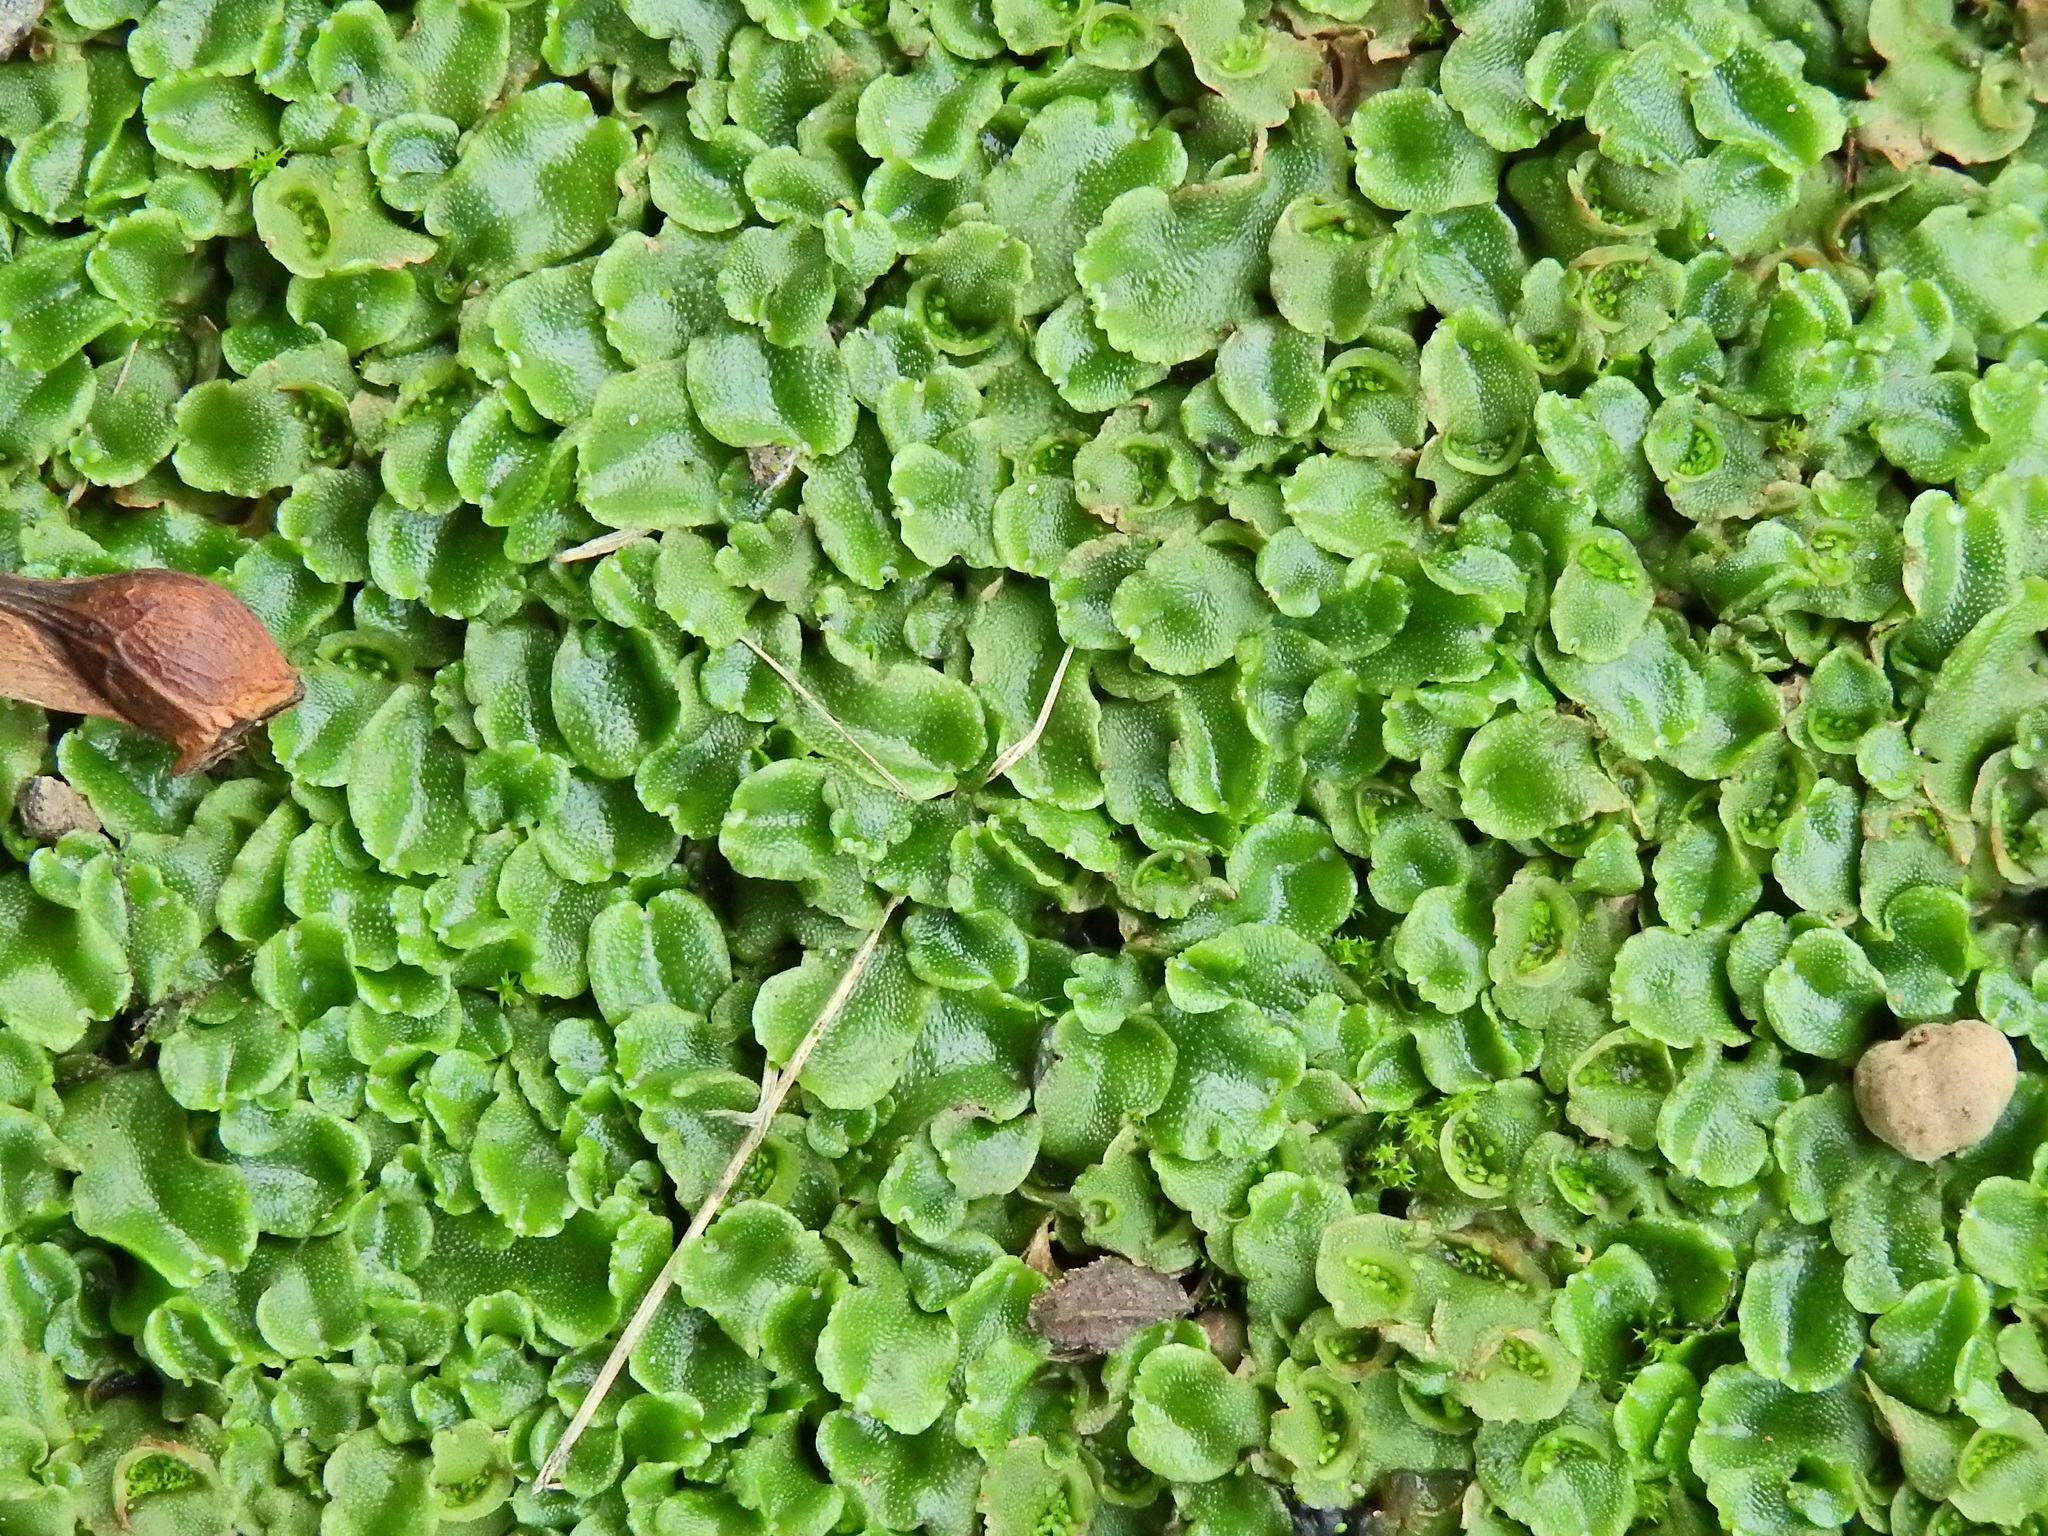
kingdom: Plantae
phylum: Marchantiophyta
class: Marchantiopsida
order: Lunulariales
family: Lunulariaceae
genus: Lunularia
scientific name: Lunularia cruciata
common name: Crescent-cup liverwort
